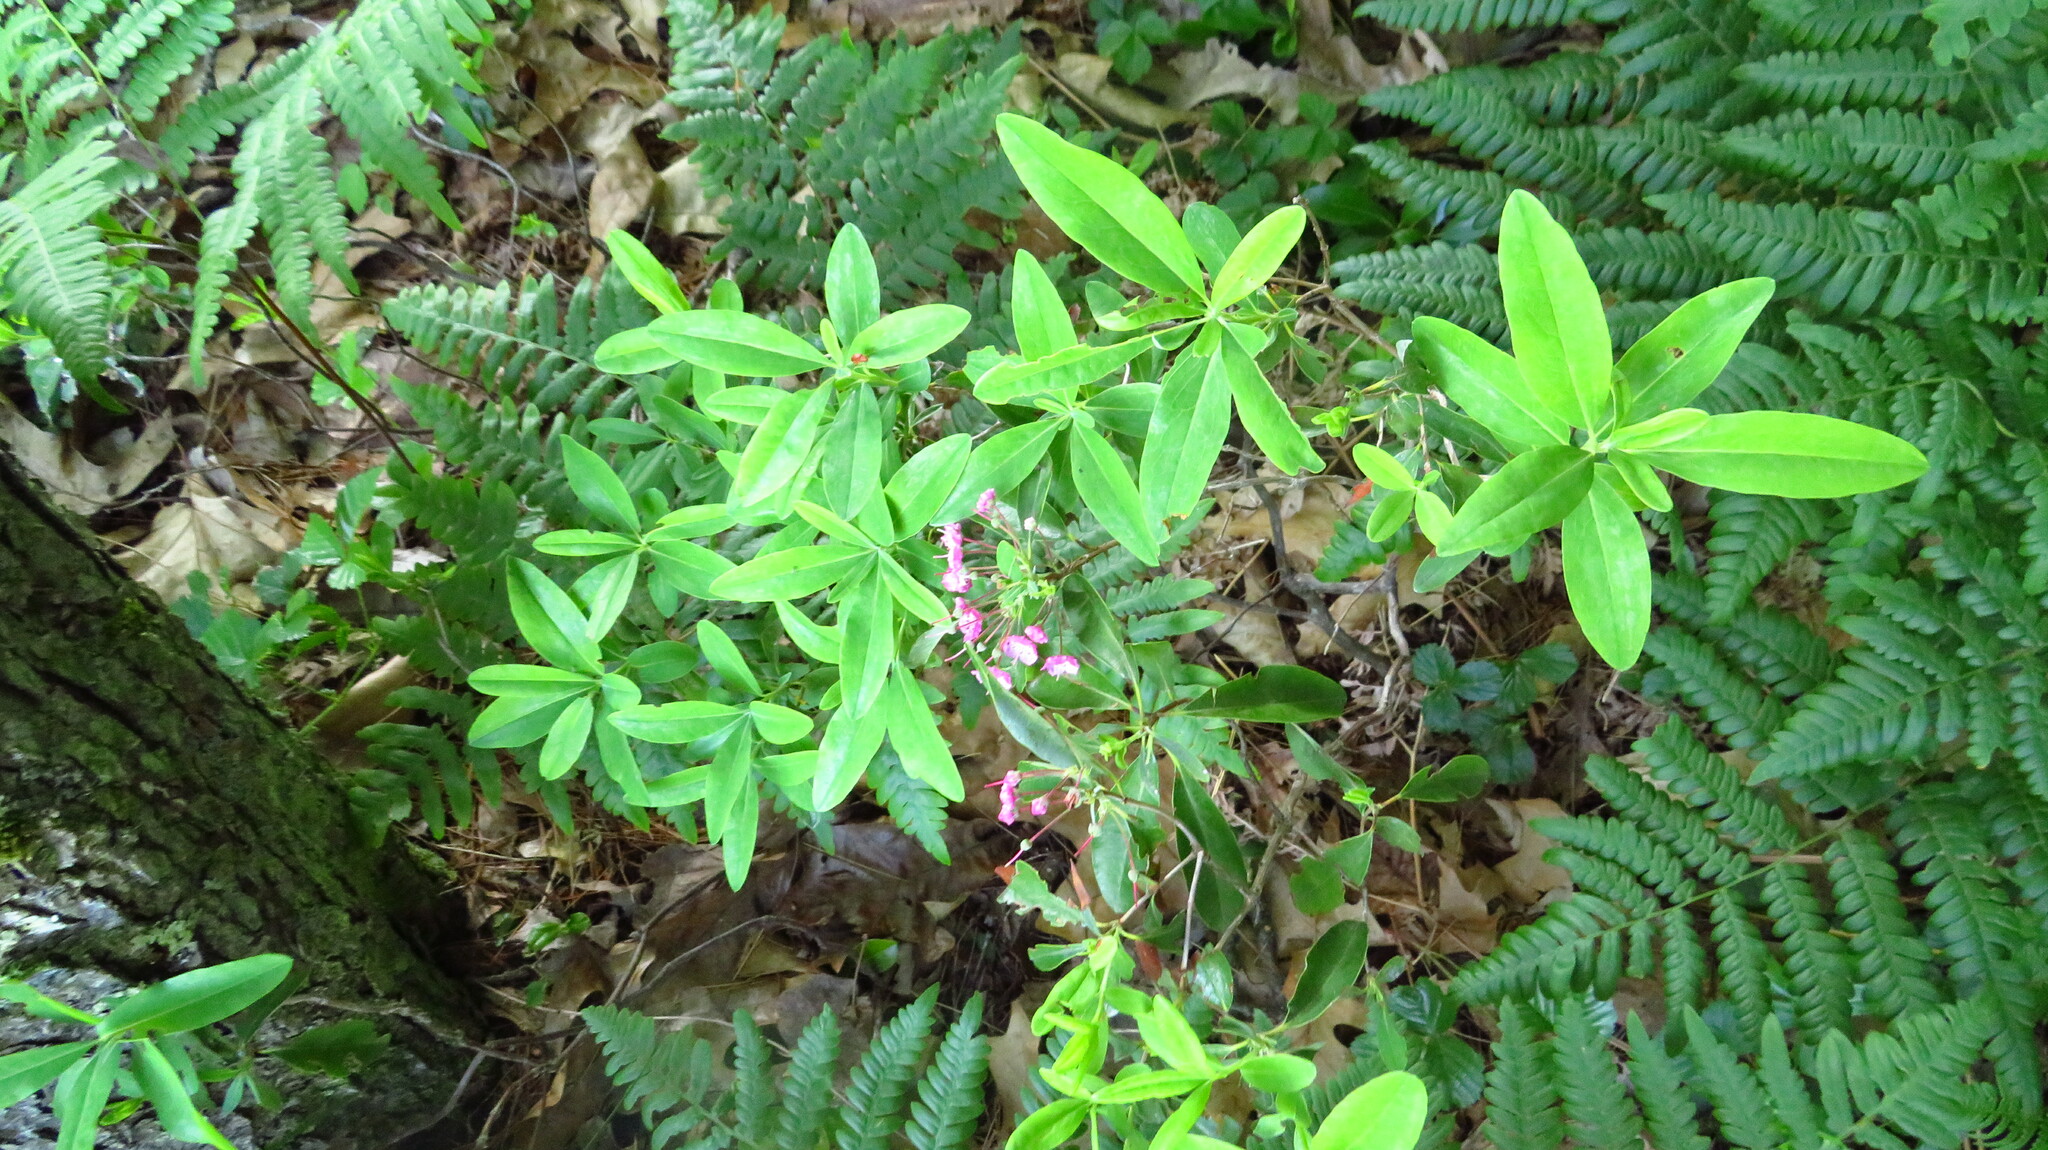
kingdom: Plantae
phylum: Tracheophyta
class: Magnoliopsida
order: Ericales
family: Ericaceae
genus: Kalmia
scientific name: Kalmia angustifolia
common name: Sheep-laurel
